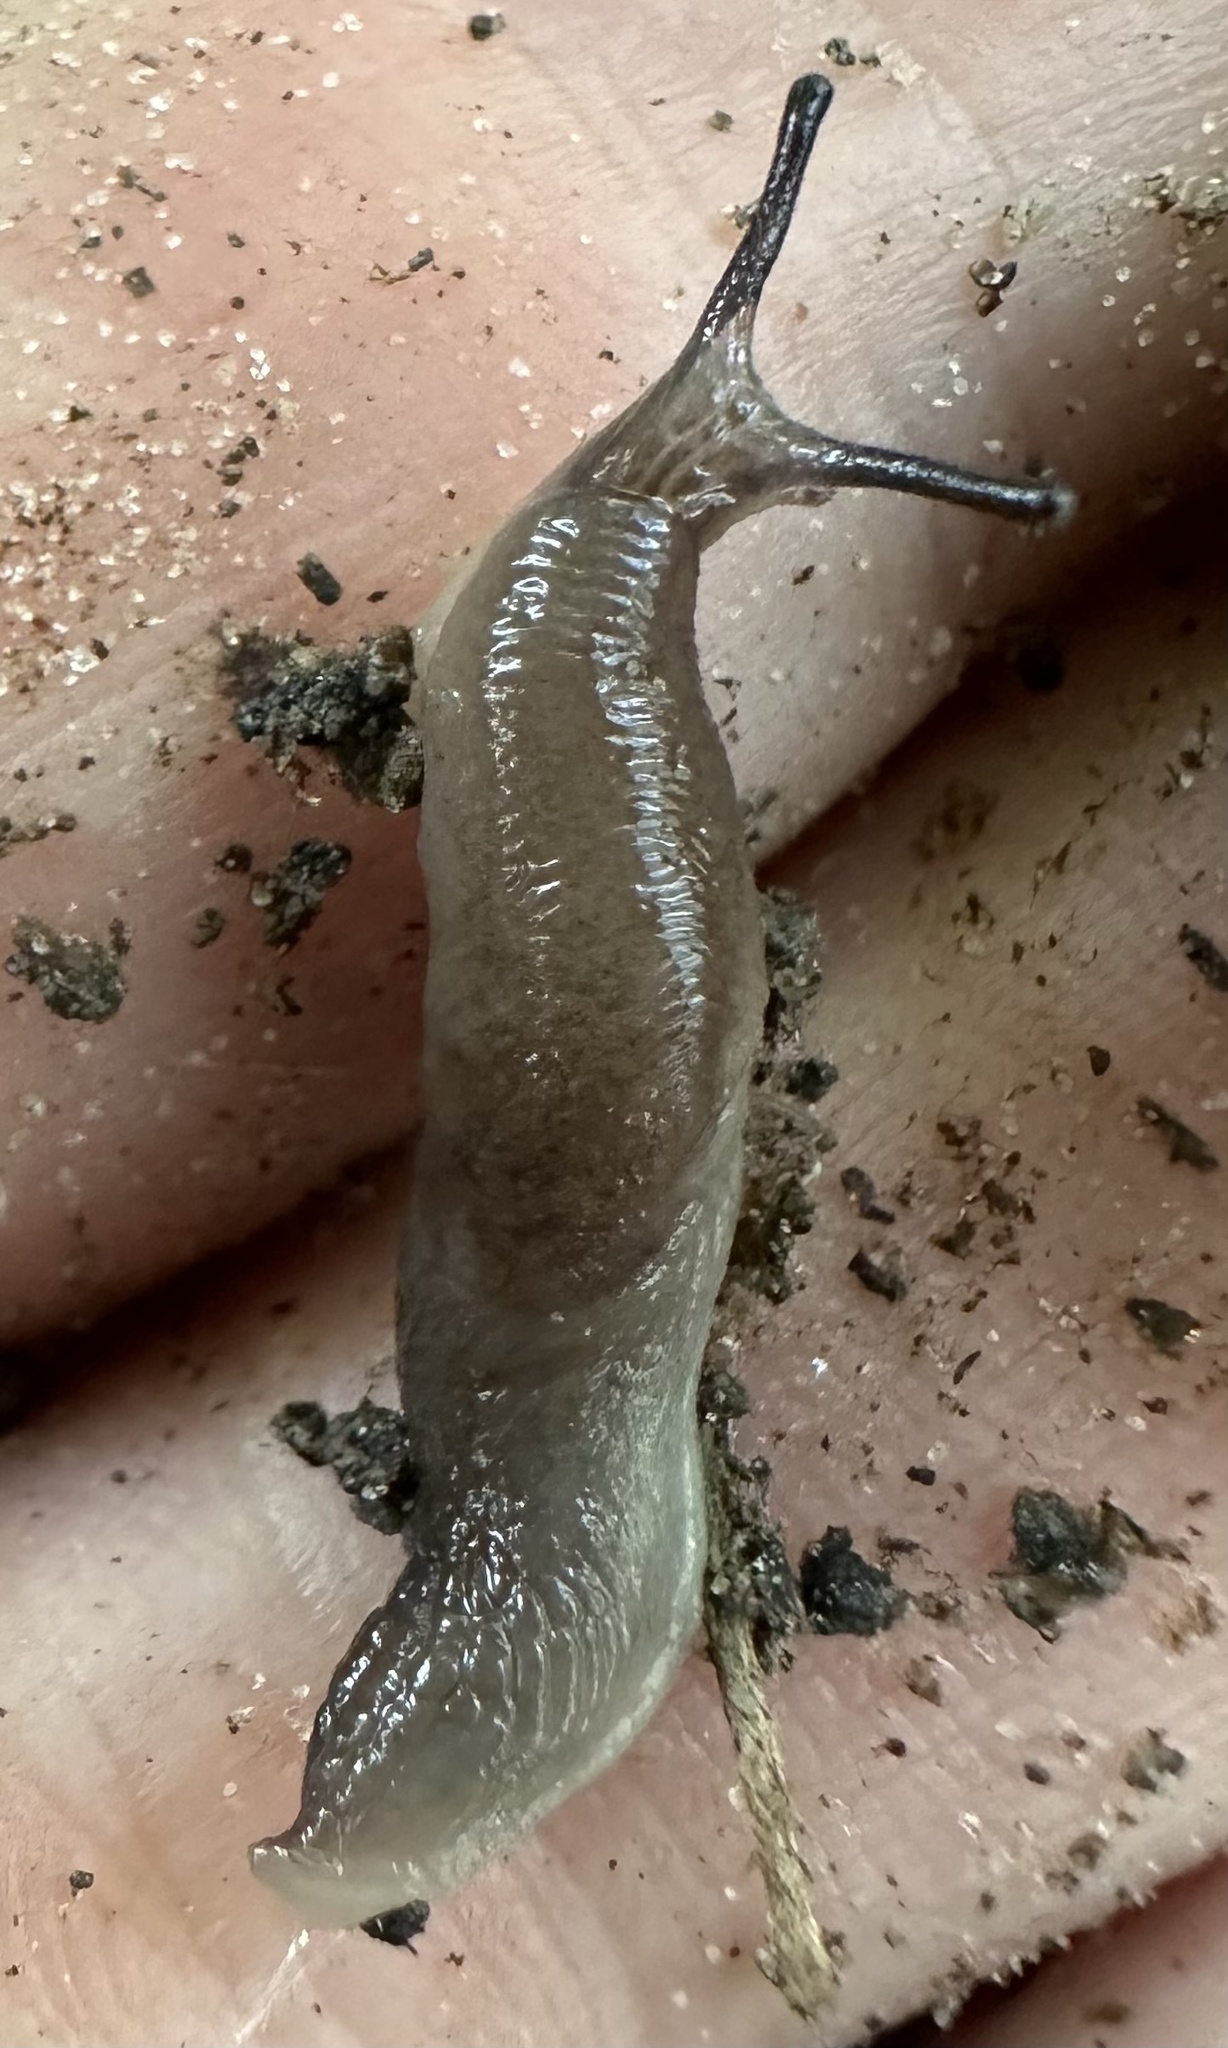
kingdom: Animalia
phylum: Mollusca
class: Gastropoda
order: Stylommatophora
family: Agriolimacidae
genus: Deroceras
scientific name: Deroceras laeve
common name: Marsh slug
